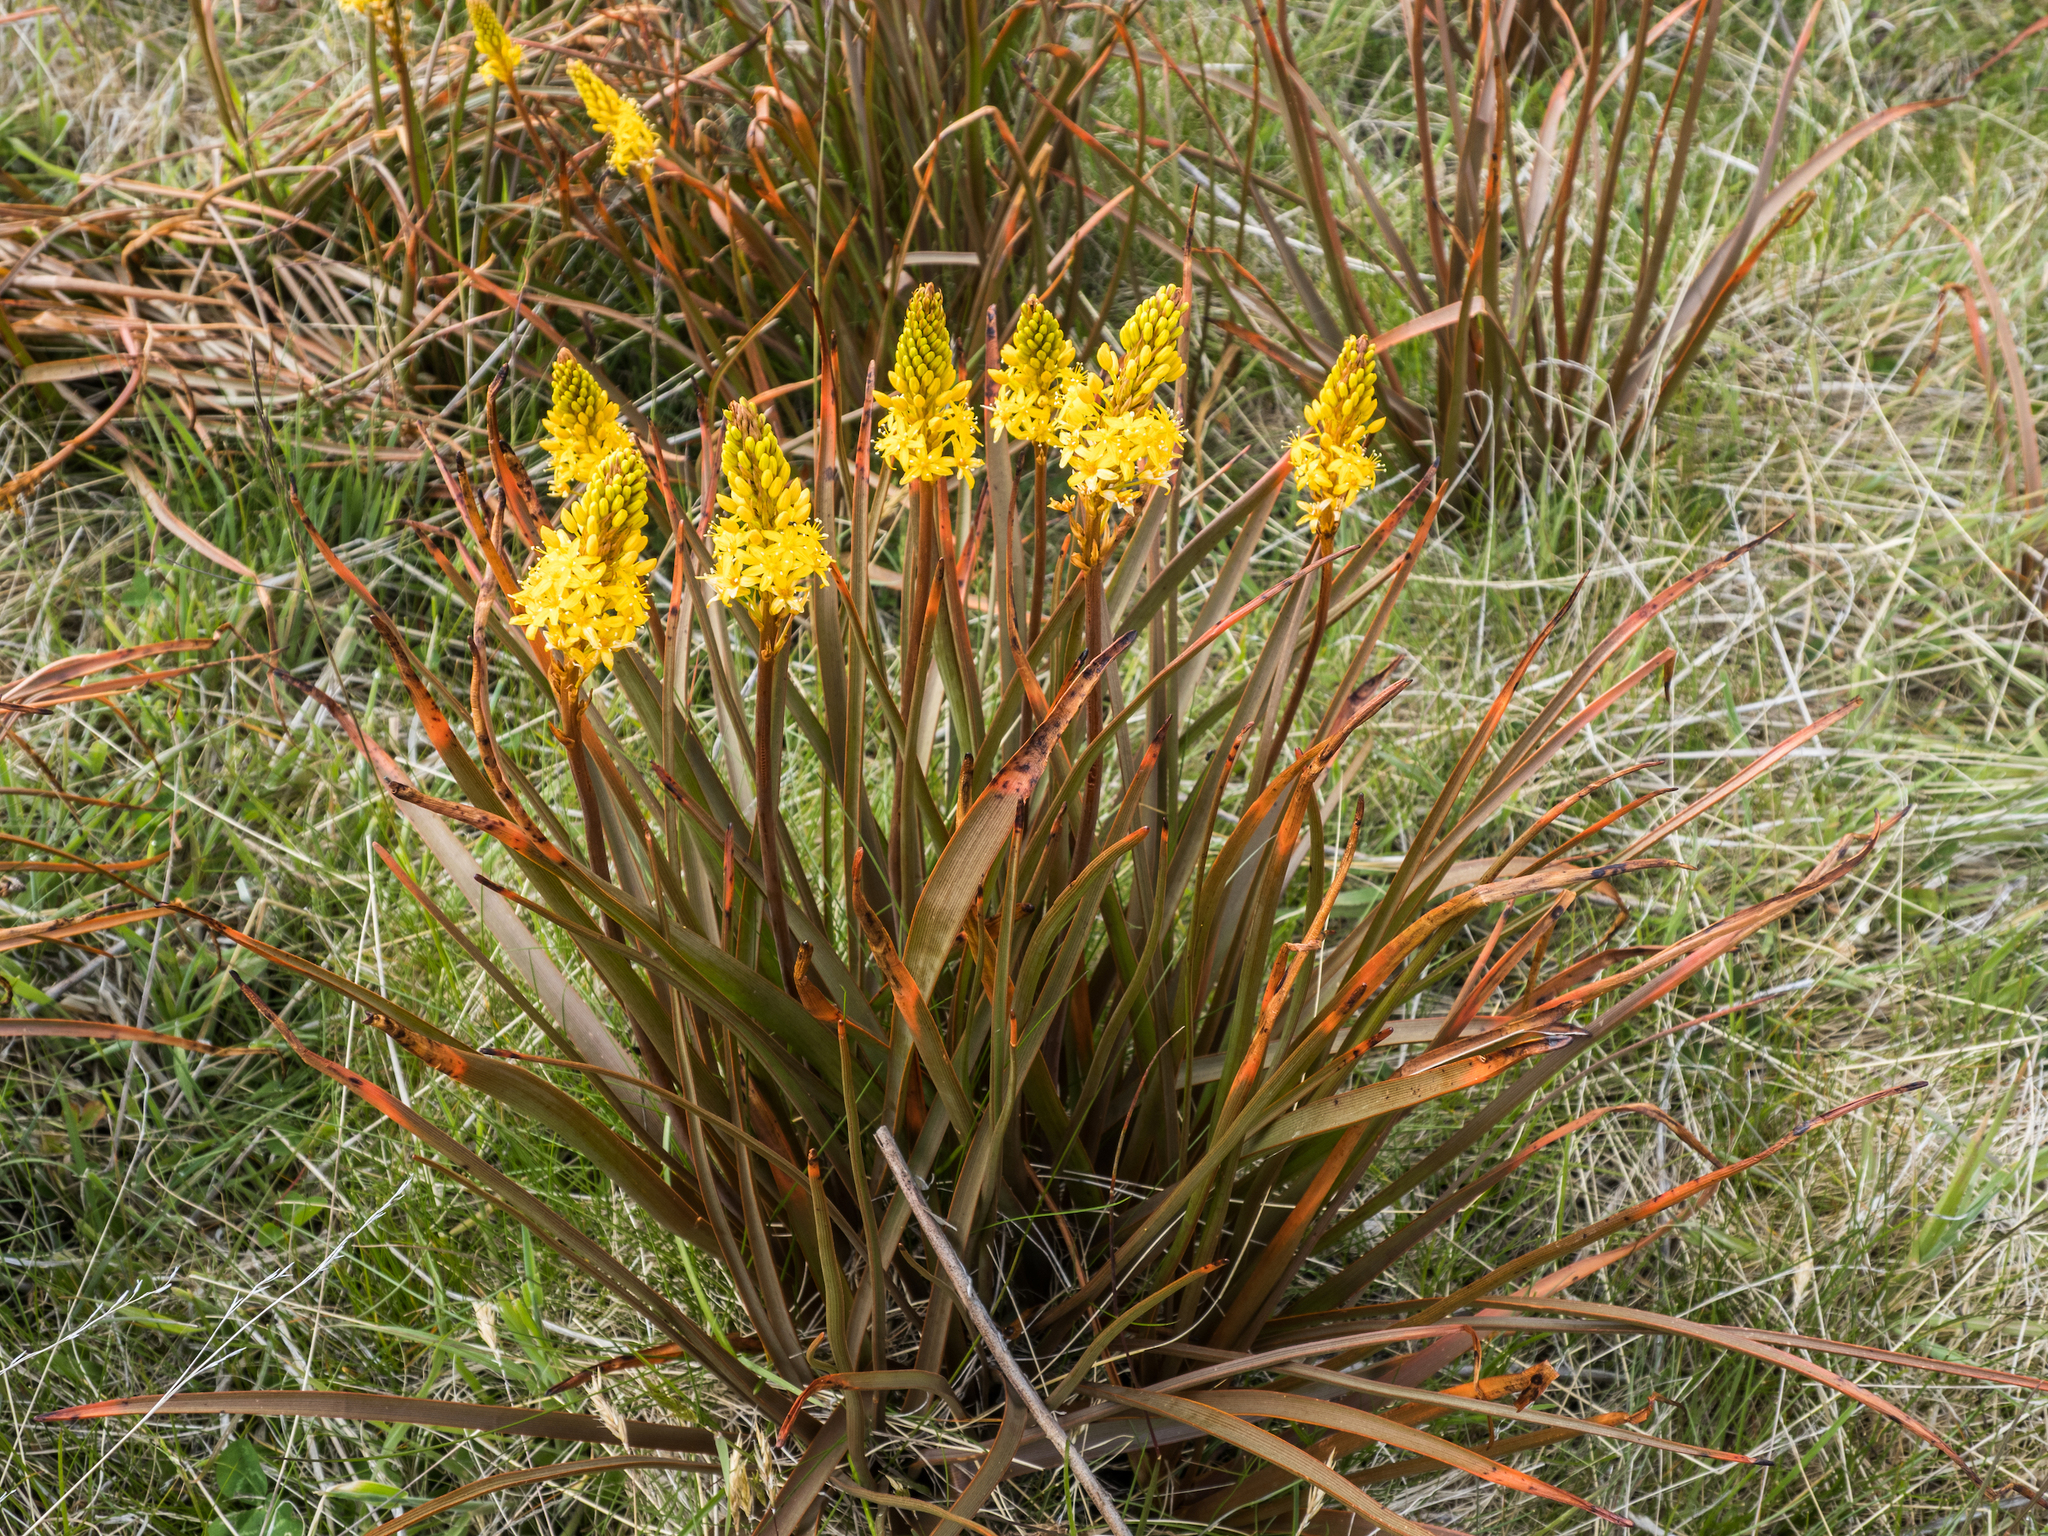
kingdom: Plantae
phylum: Tracheophyta
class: Liliopsida
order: Asparagales
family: Asphodelaceae
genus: Bulbinella
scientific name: Bulbinella angustifolia
